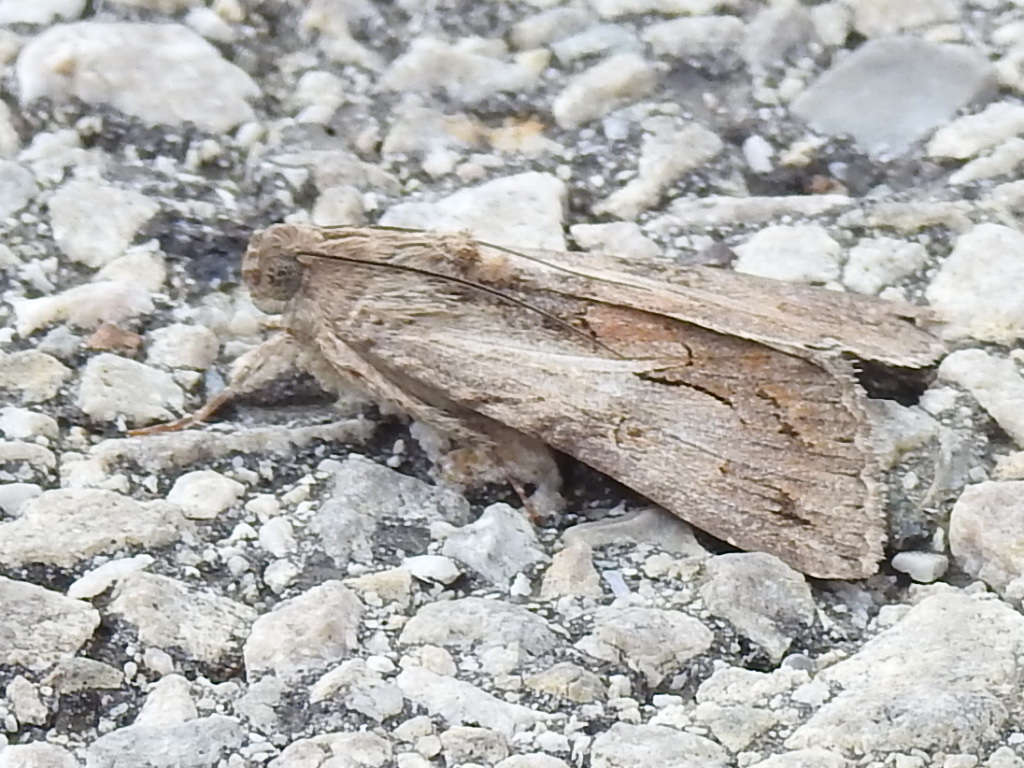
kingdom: Animalia
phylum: Arthropoda
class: Insecta
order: Lepidoptera
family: Erebidae
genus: Melipotis
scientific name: Melipotis jucunda
